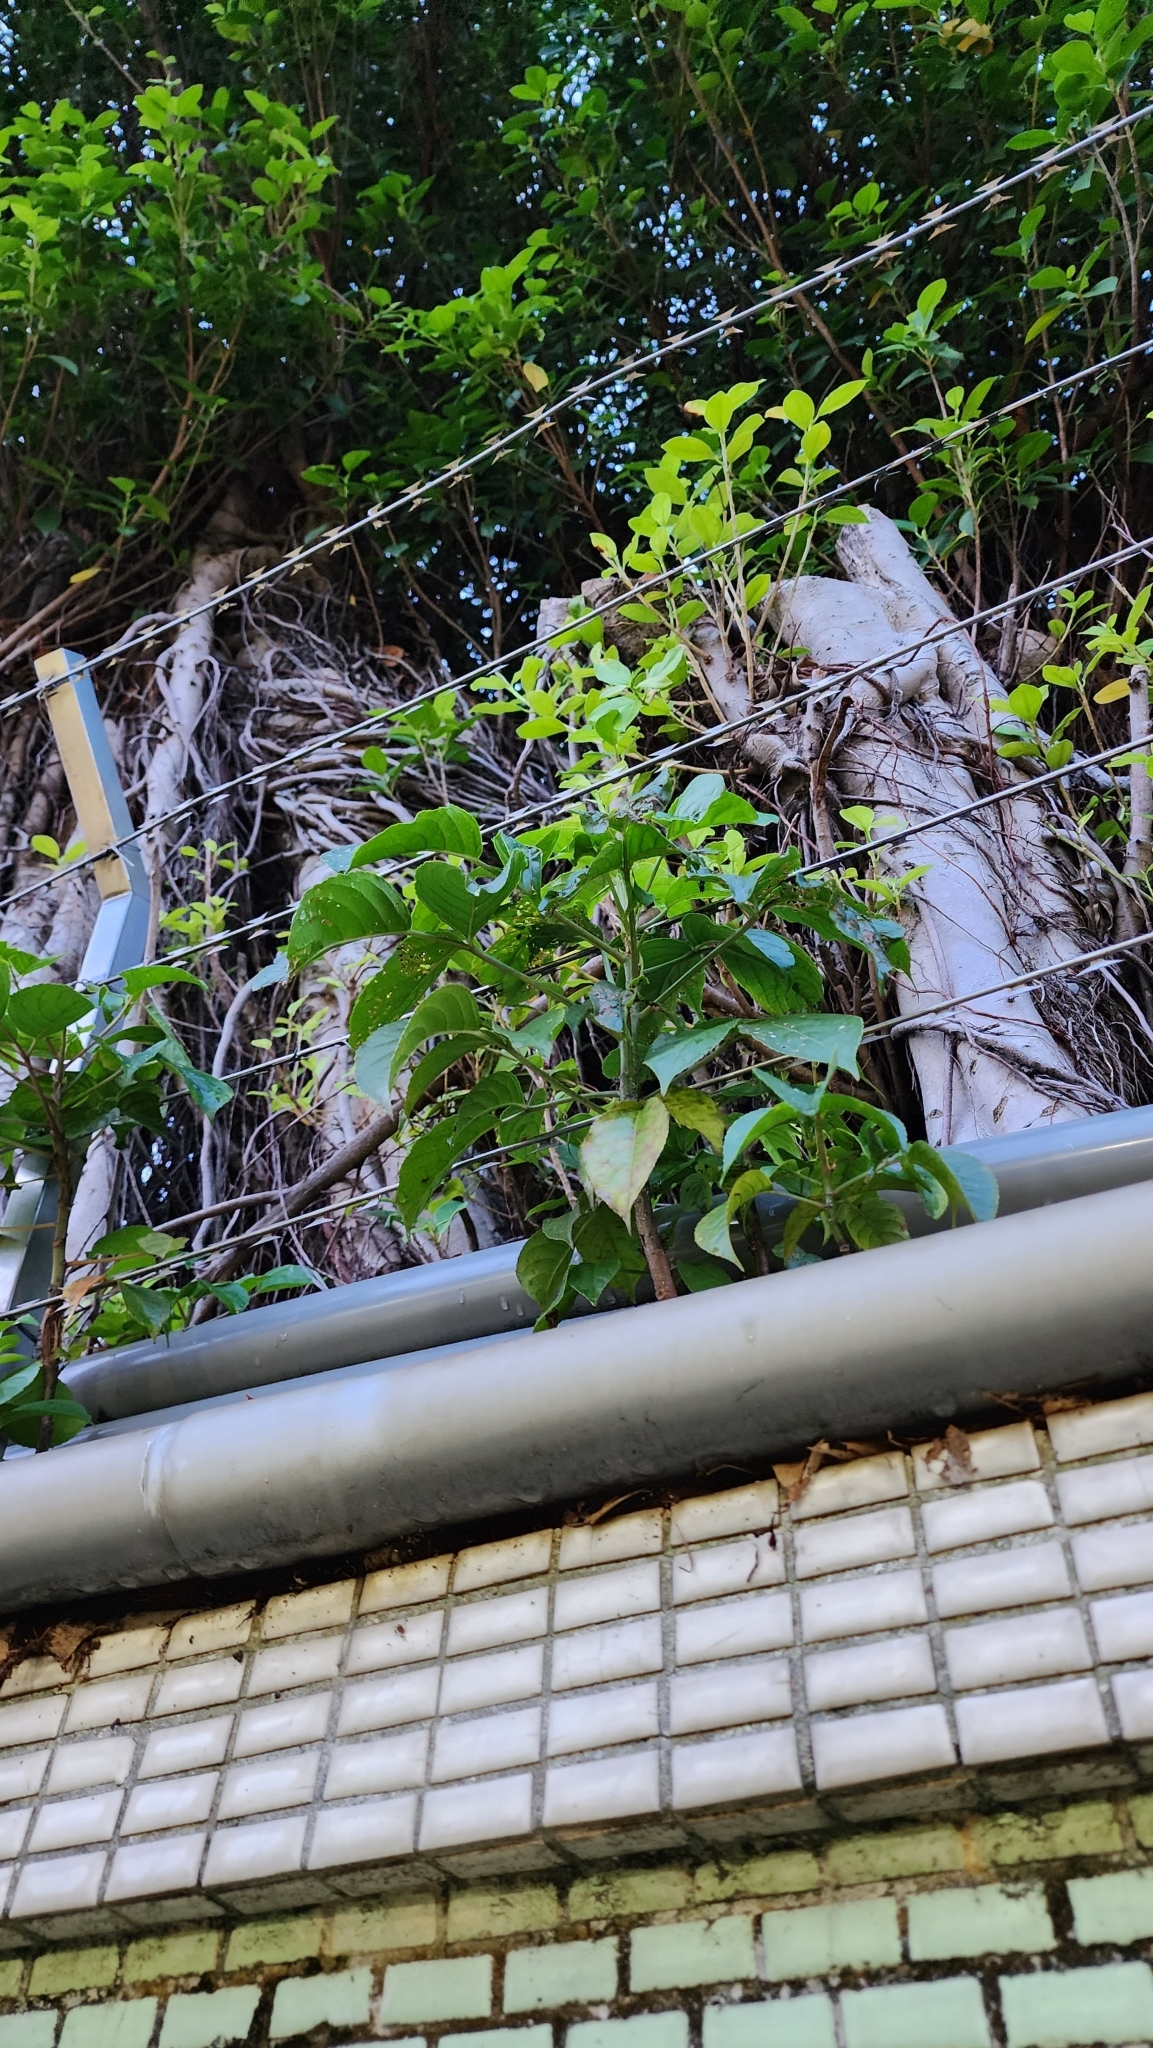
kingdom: Plantae
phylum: Tracheophyta
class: Magnoliopsida
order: Malpighiales
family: Phyllanthaceae
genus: Bischofia
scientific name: Bischofia javanica
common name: Javanese bishopwood
